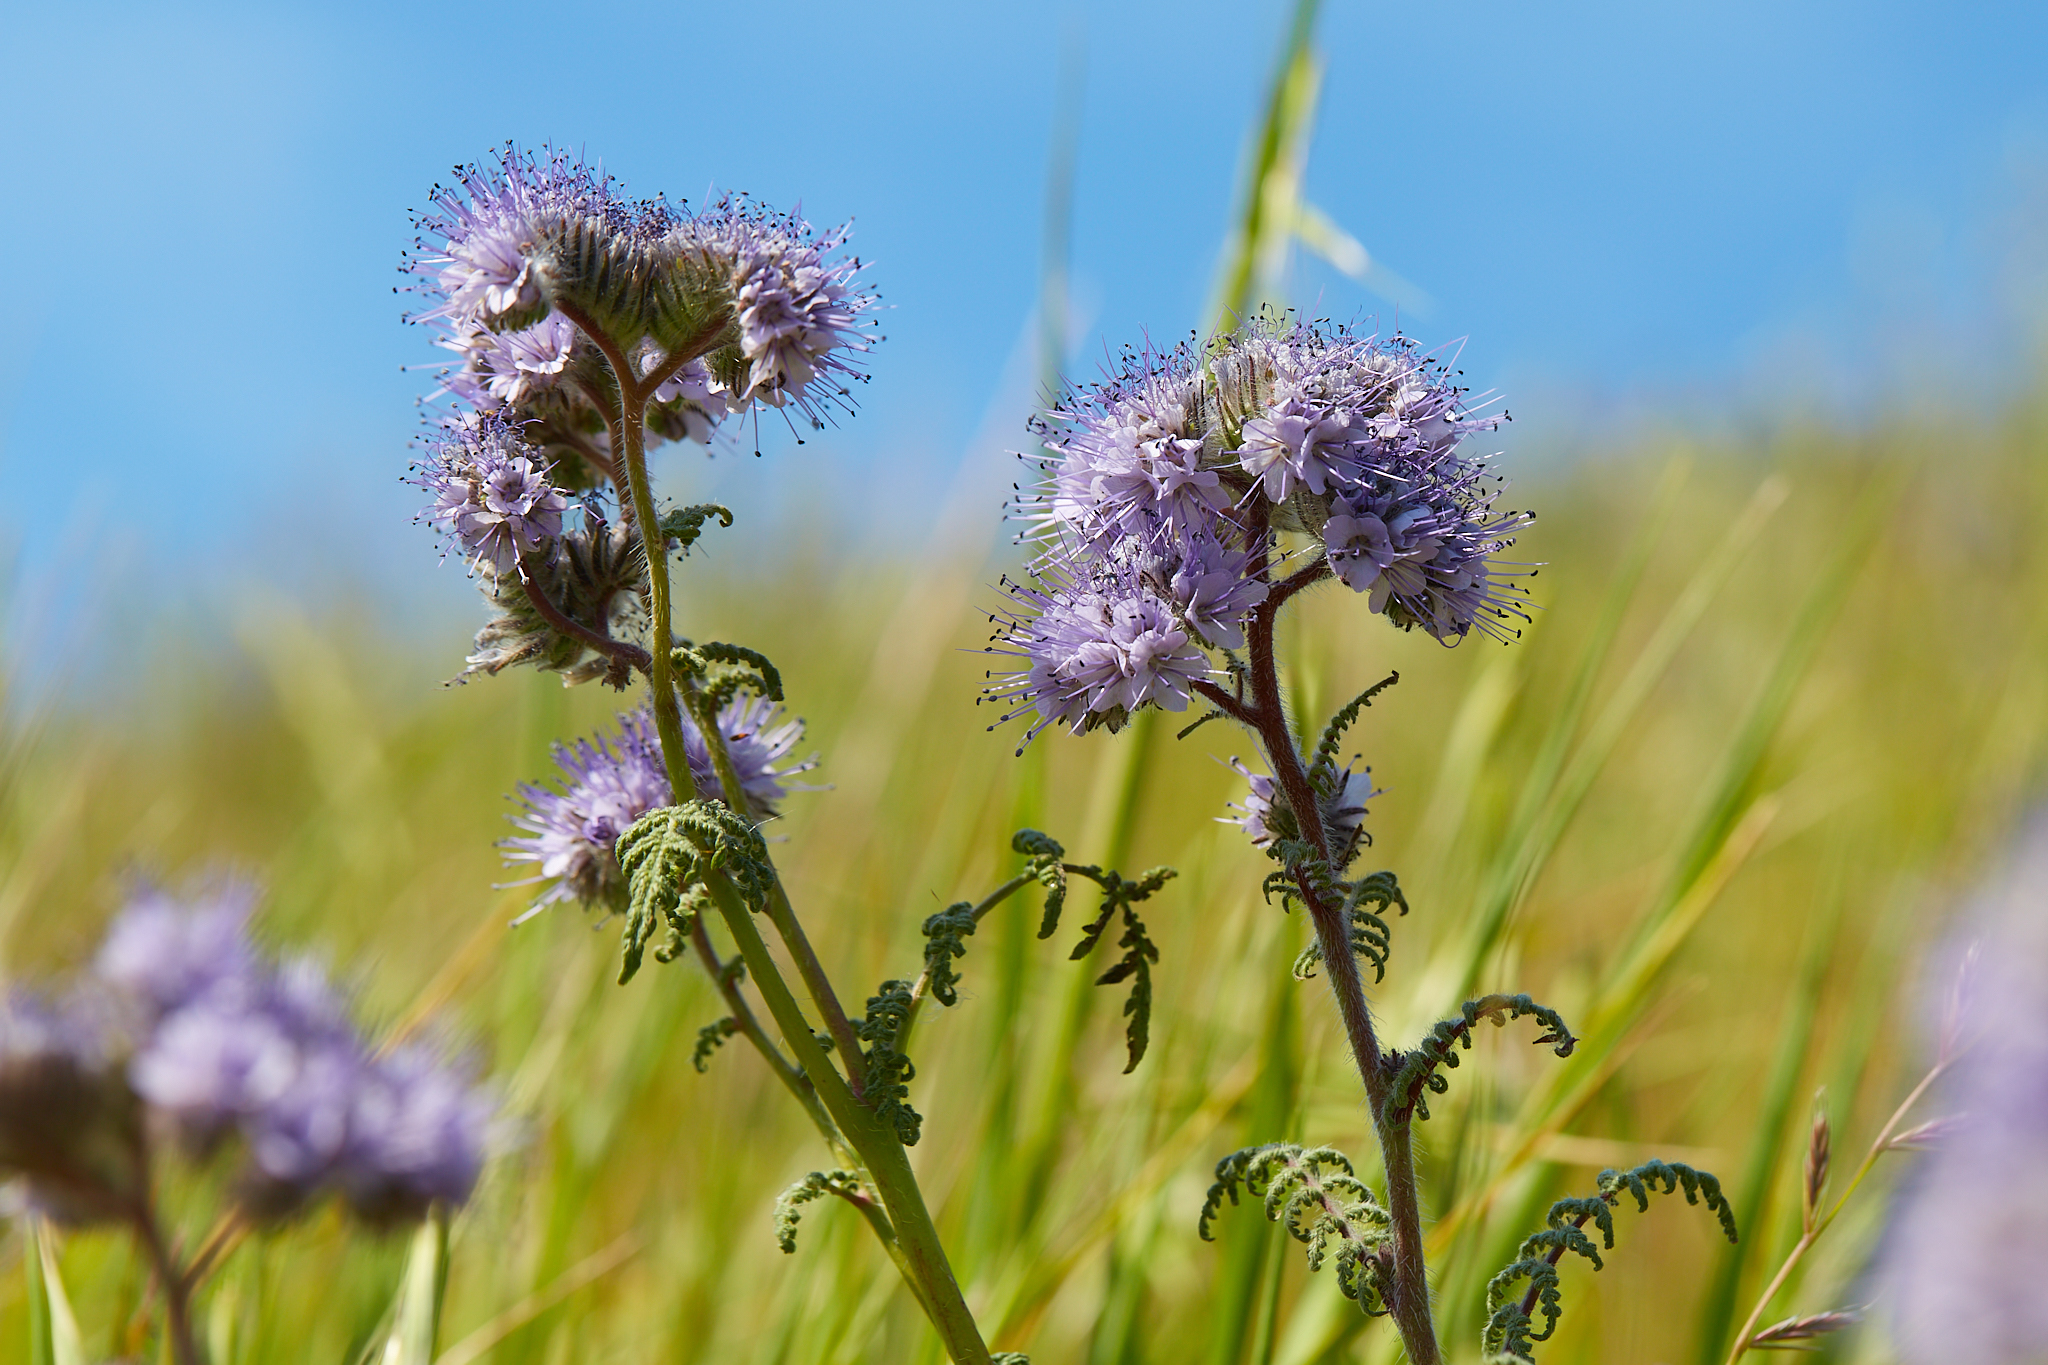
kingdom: Plantae
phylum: Tracheophyta
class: Magnoliopsida
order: Boraginales
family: Hydrophyllaceae
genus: Phacelia
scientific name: Phacelia tanacetifolia
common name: Phacelia
